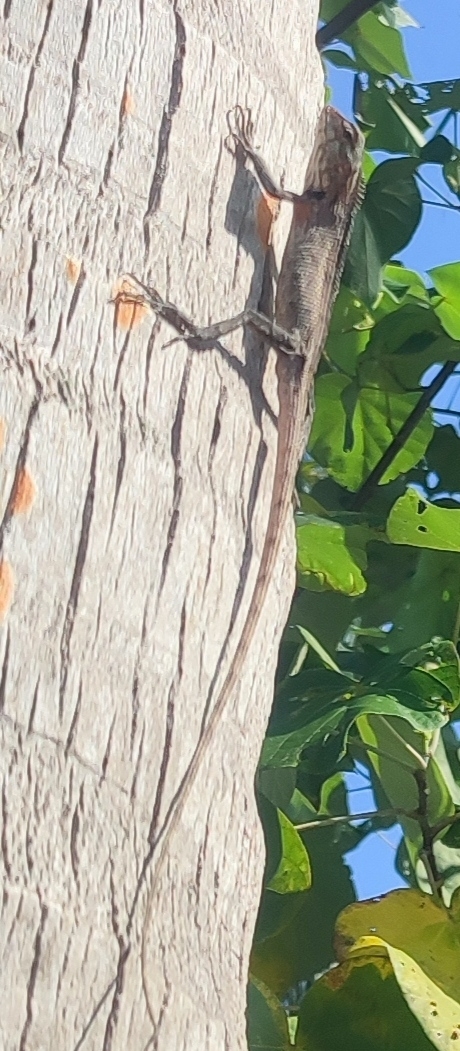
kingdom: Animalia
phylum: Chordata
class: Squamata
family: Agamidae
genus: Calotes
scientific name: Calotes versicolor
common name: Oriental garden lizard
